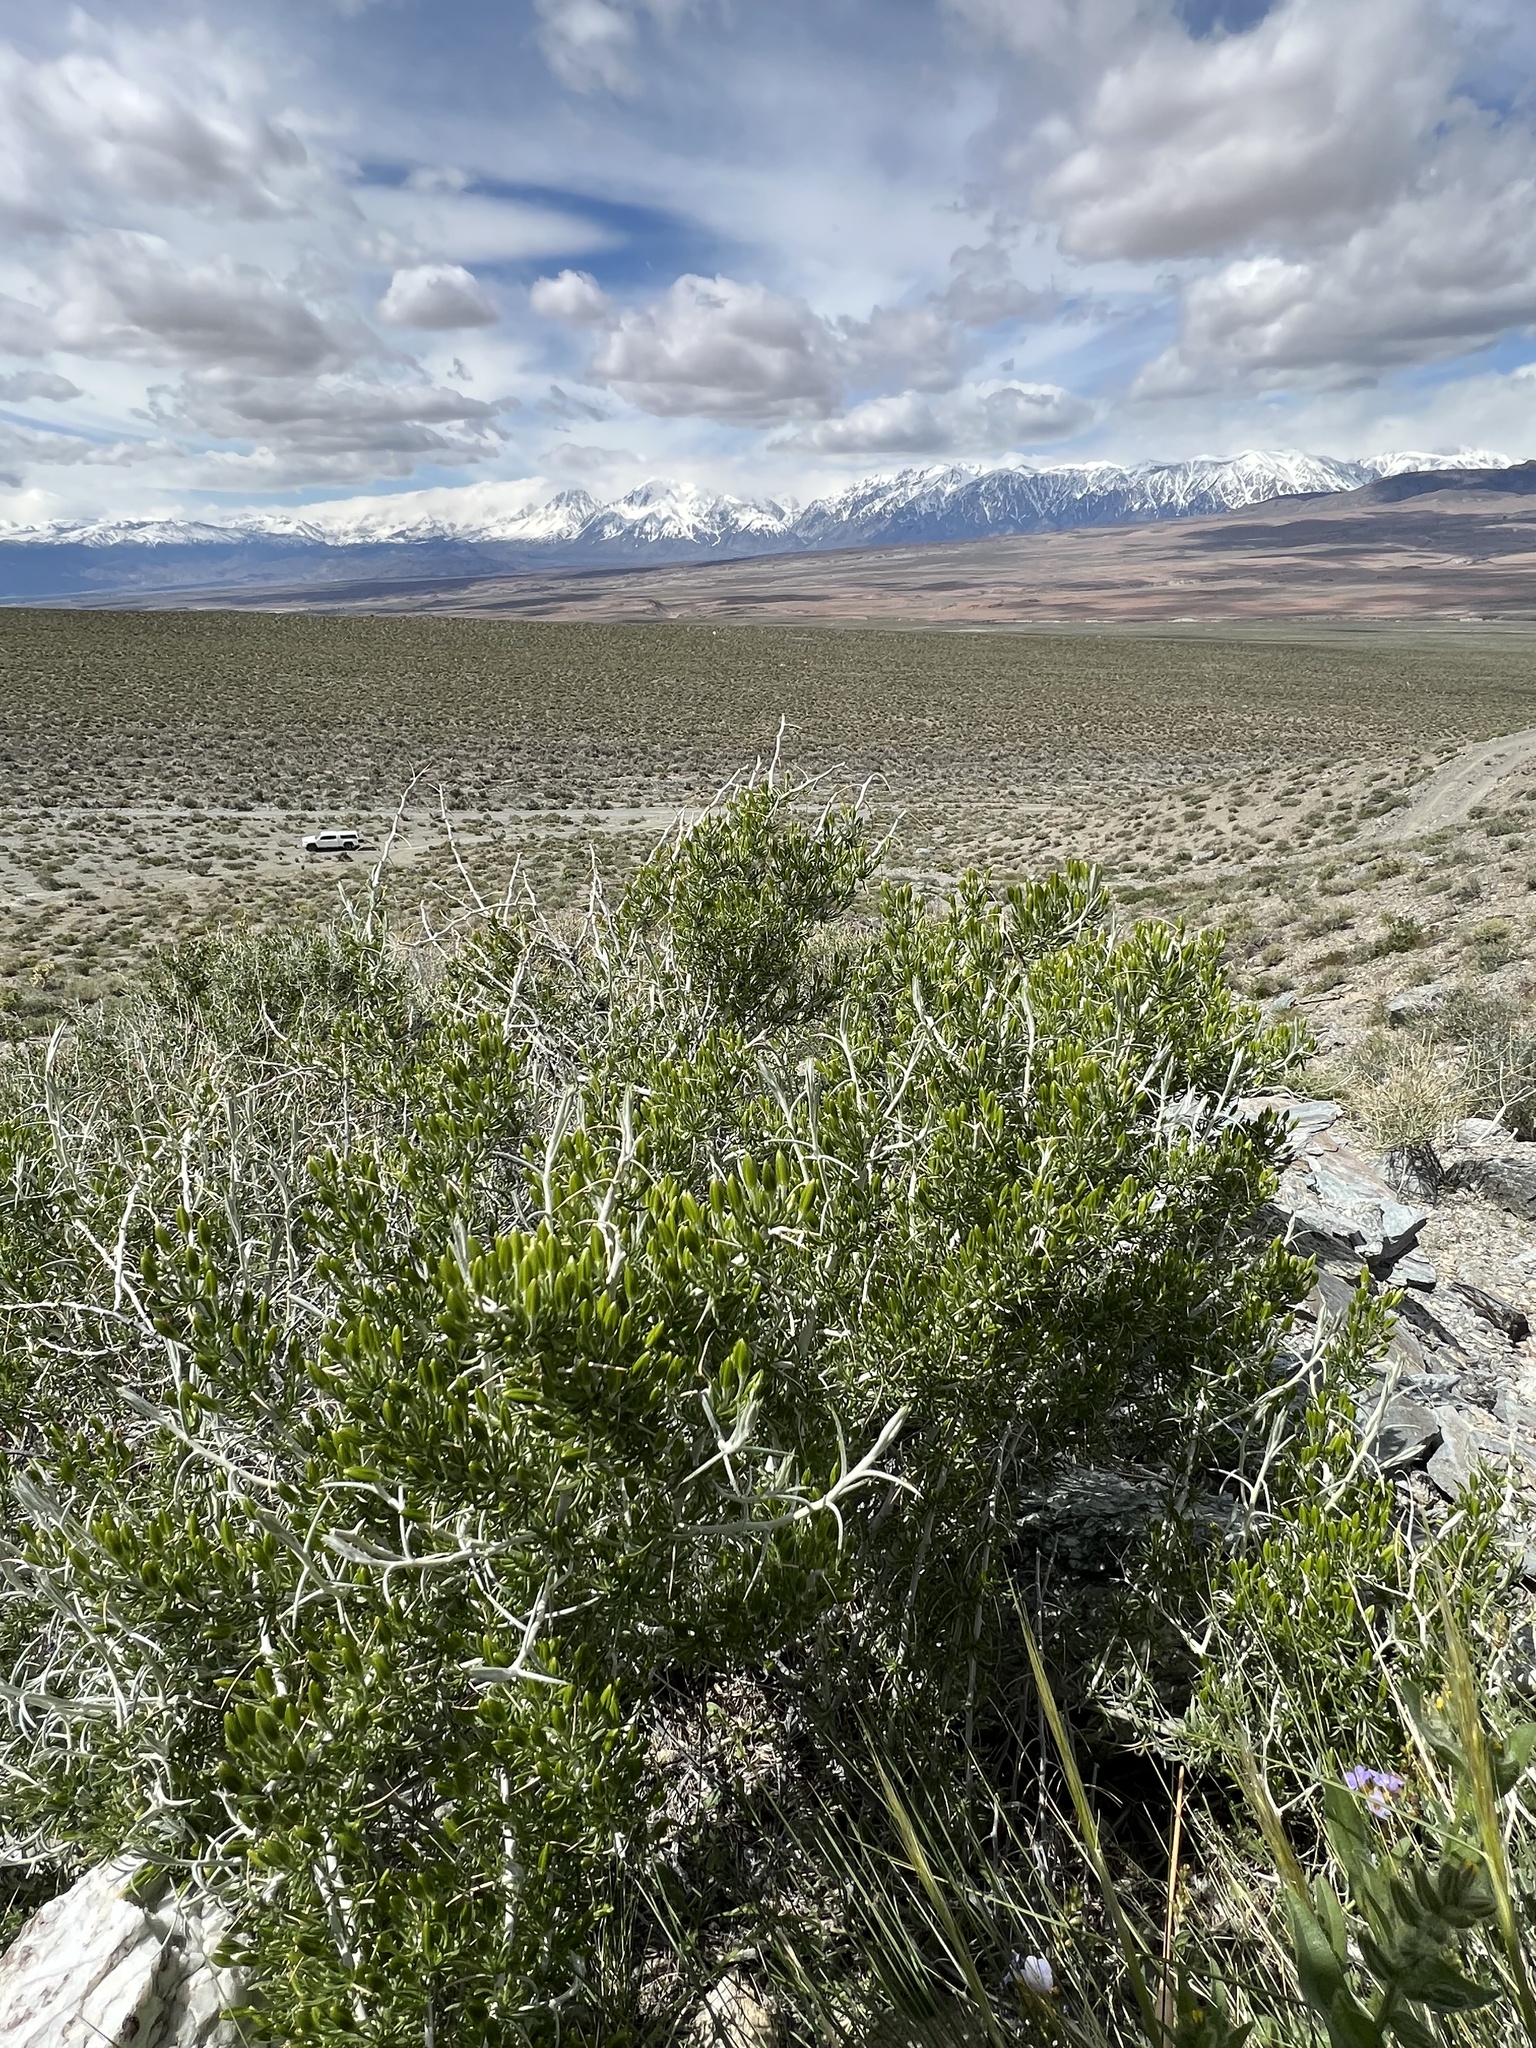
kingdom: Plantae
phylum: Tracheophyta
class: Magnoliopsida
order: Asterales
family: Asteraceae
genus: Tetradymia
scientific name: Tetradymia axillaris
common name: Long-spine horsebrush
